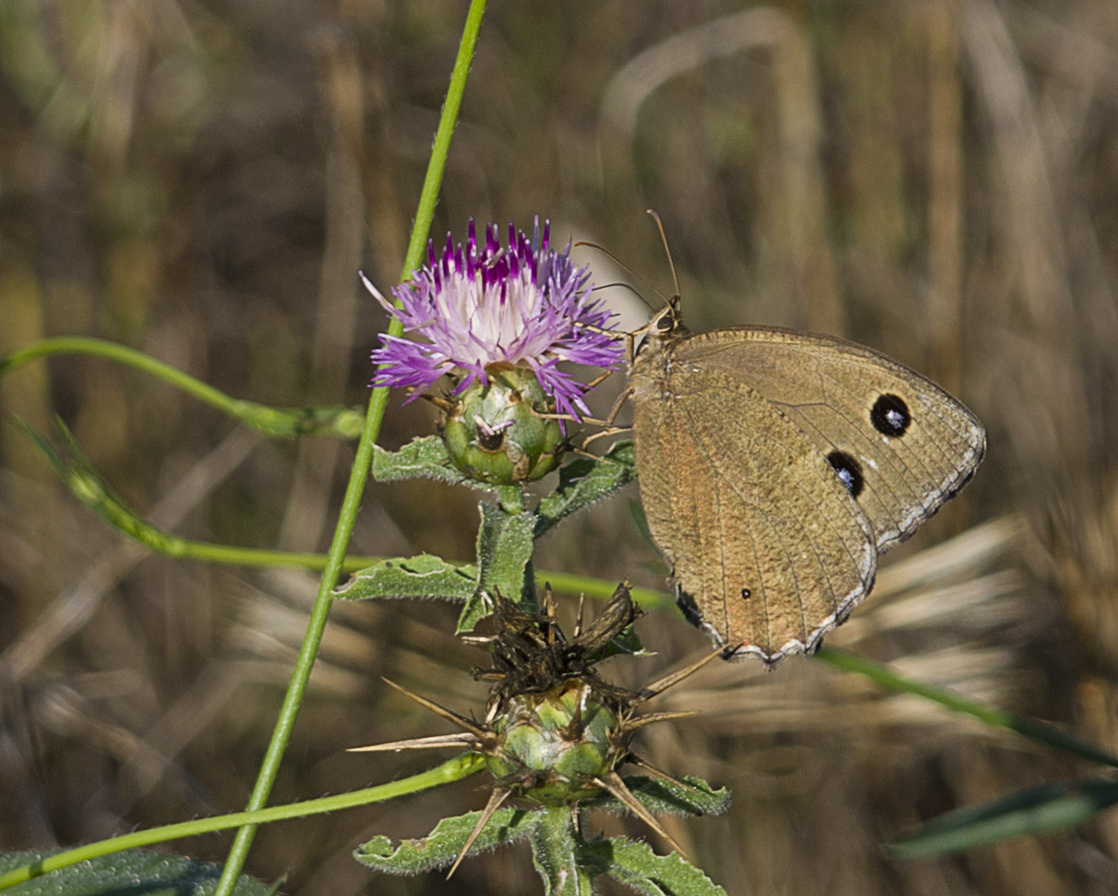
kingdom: Animalia
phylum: Arthropoda
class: Insecta
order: Lepidoptera
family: Nymphalidae
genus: Minois
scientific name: Minois dryas
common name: Dryad
